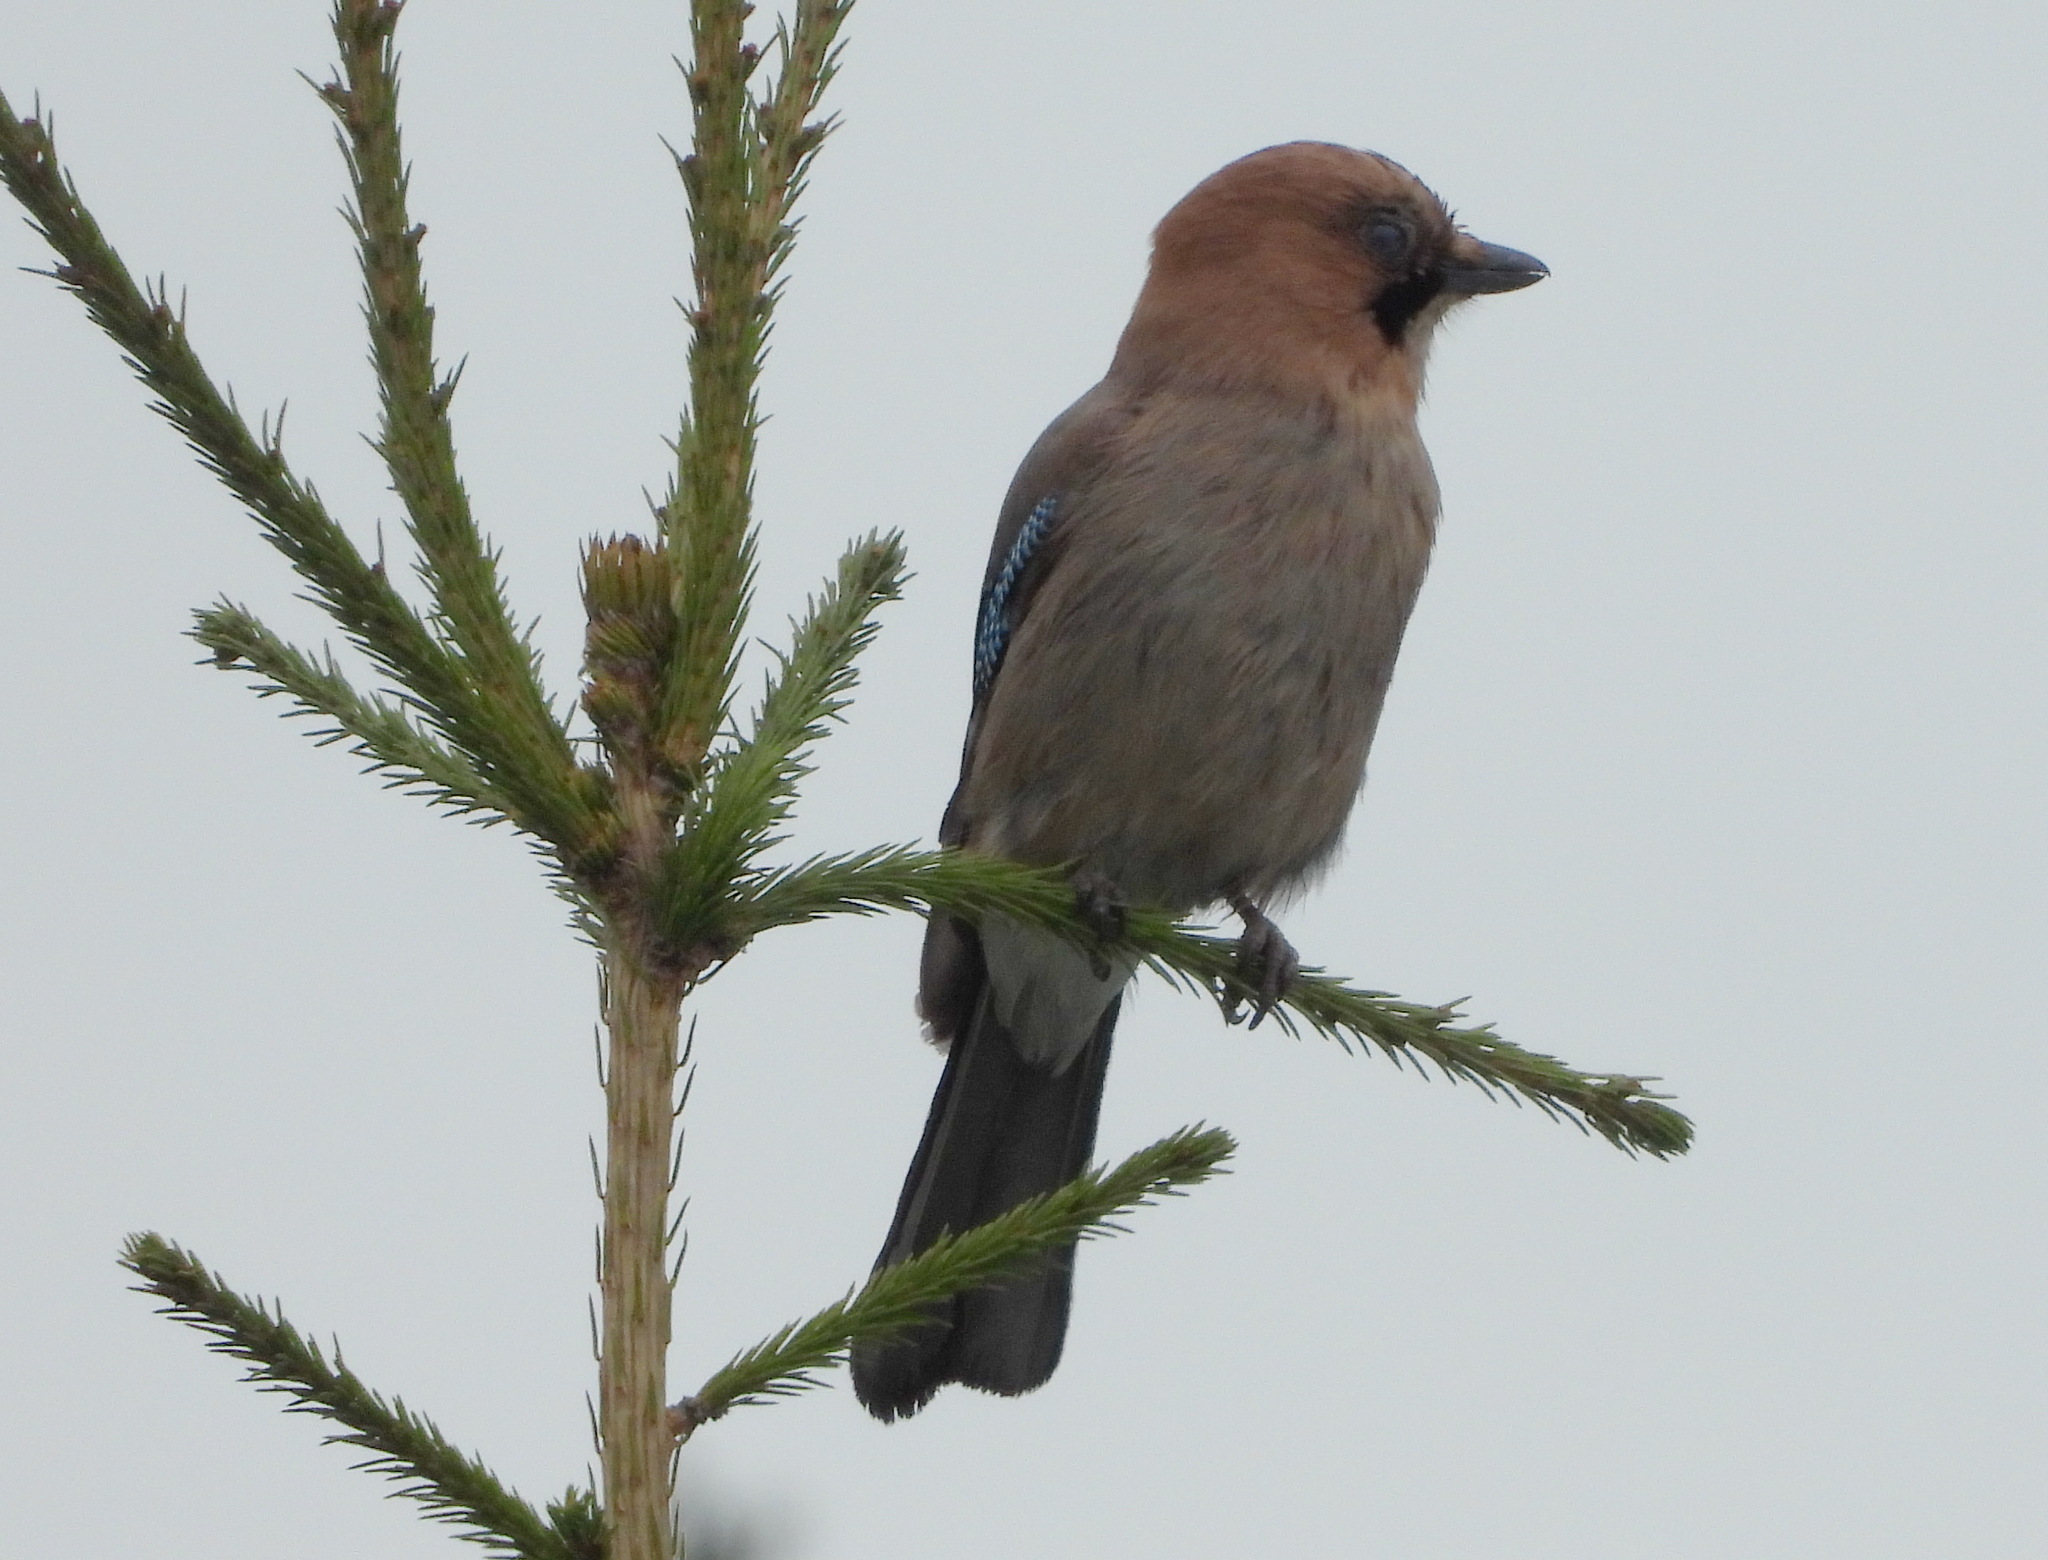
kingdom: Animalia
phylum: Chordata
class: Aves
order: Passeriformes
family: Corvidae
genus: Garrulus
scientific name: Garrulus glandarius
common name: Eurasian jay
